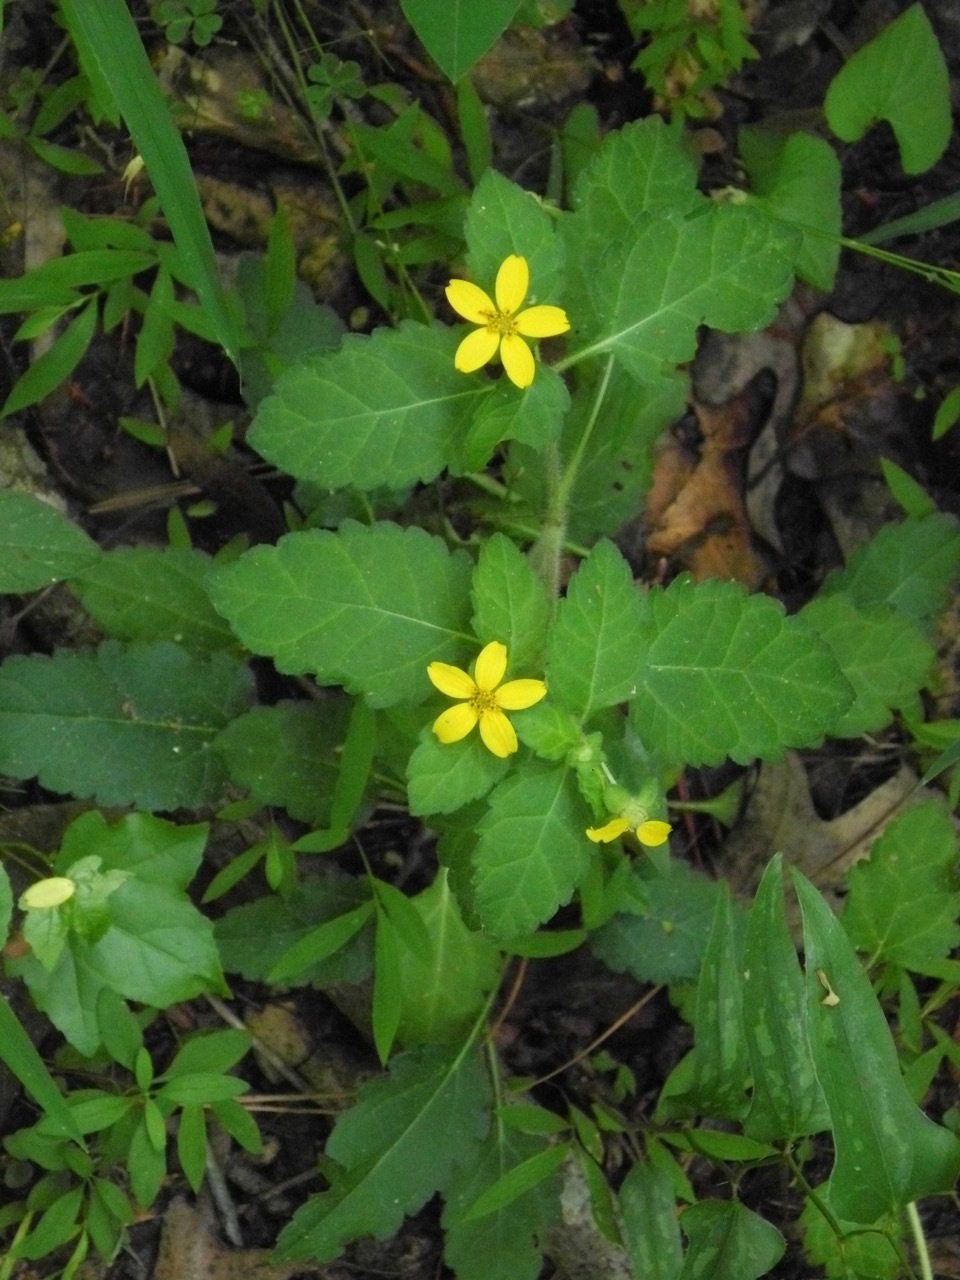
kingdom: Plantae
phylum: Tracheophyta
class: Magnoliopsida
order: Asterales
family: Asteraceae
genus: Chrysogonum
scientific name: Chrysogonum virginianum
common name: Golden-knee
